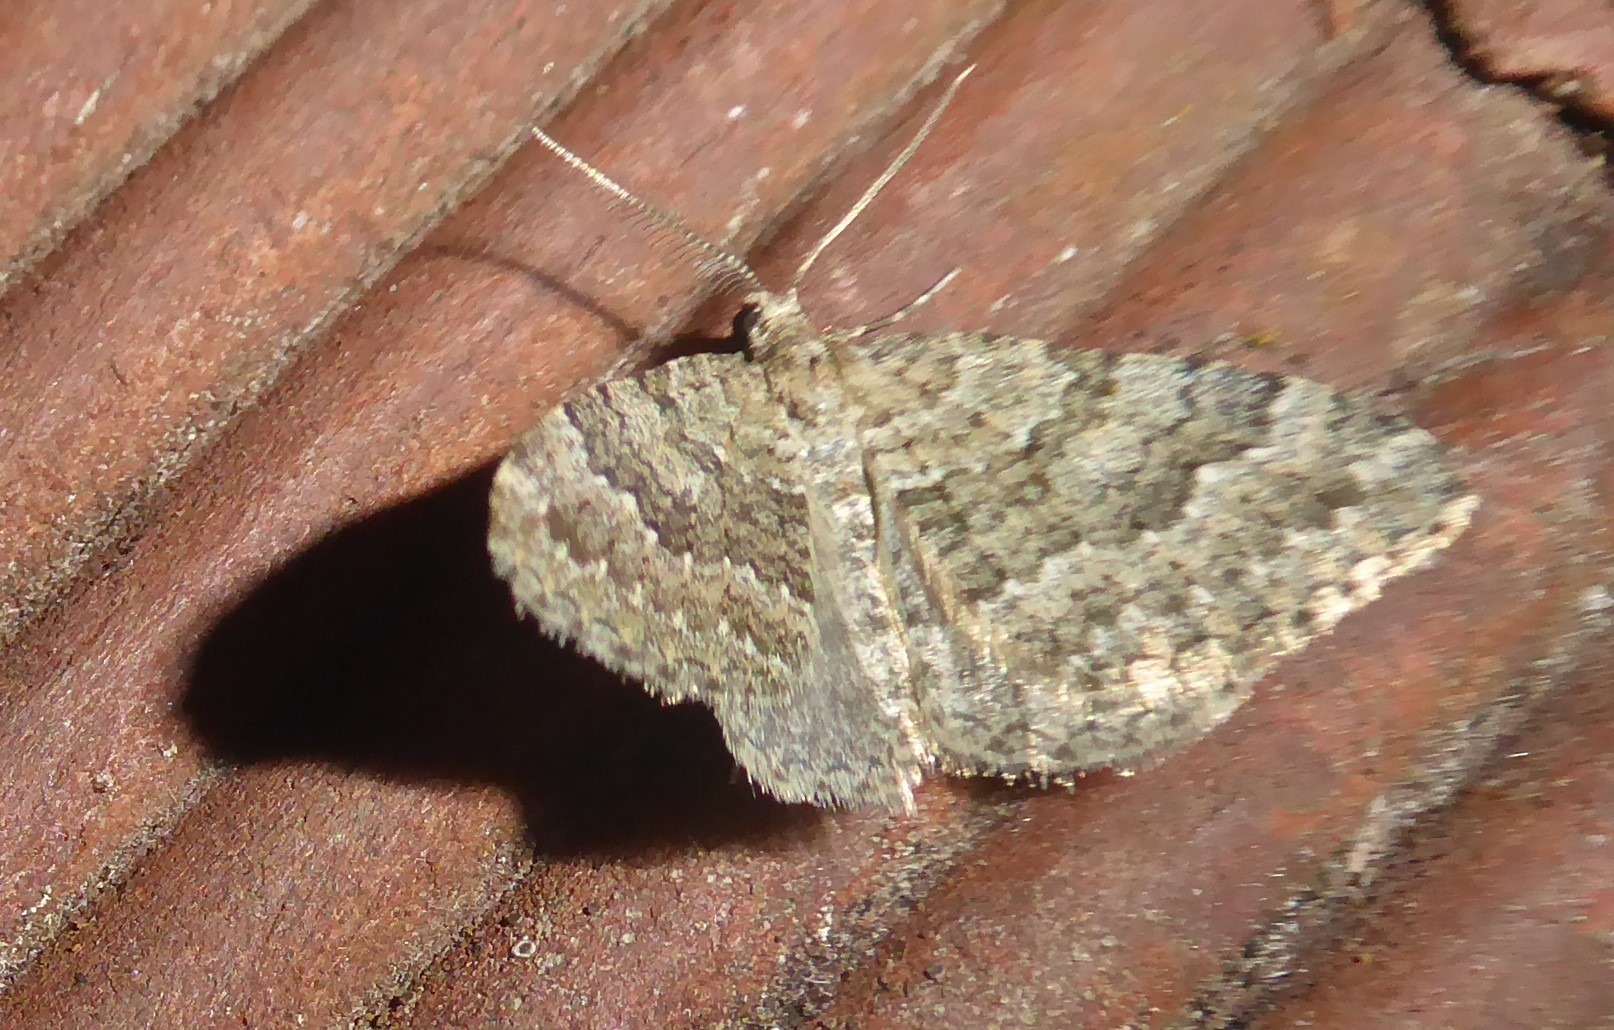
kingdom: Animalia
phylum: Arthropoda
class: Insecta
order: Lepidoptera
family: Geometridae
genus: Helastia
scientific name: Helastia corcularia
